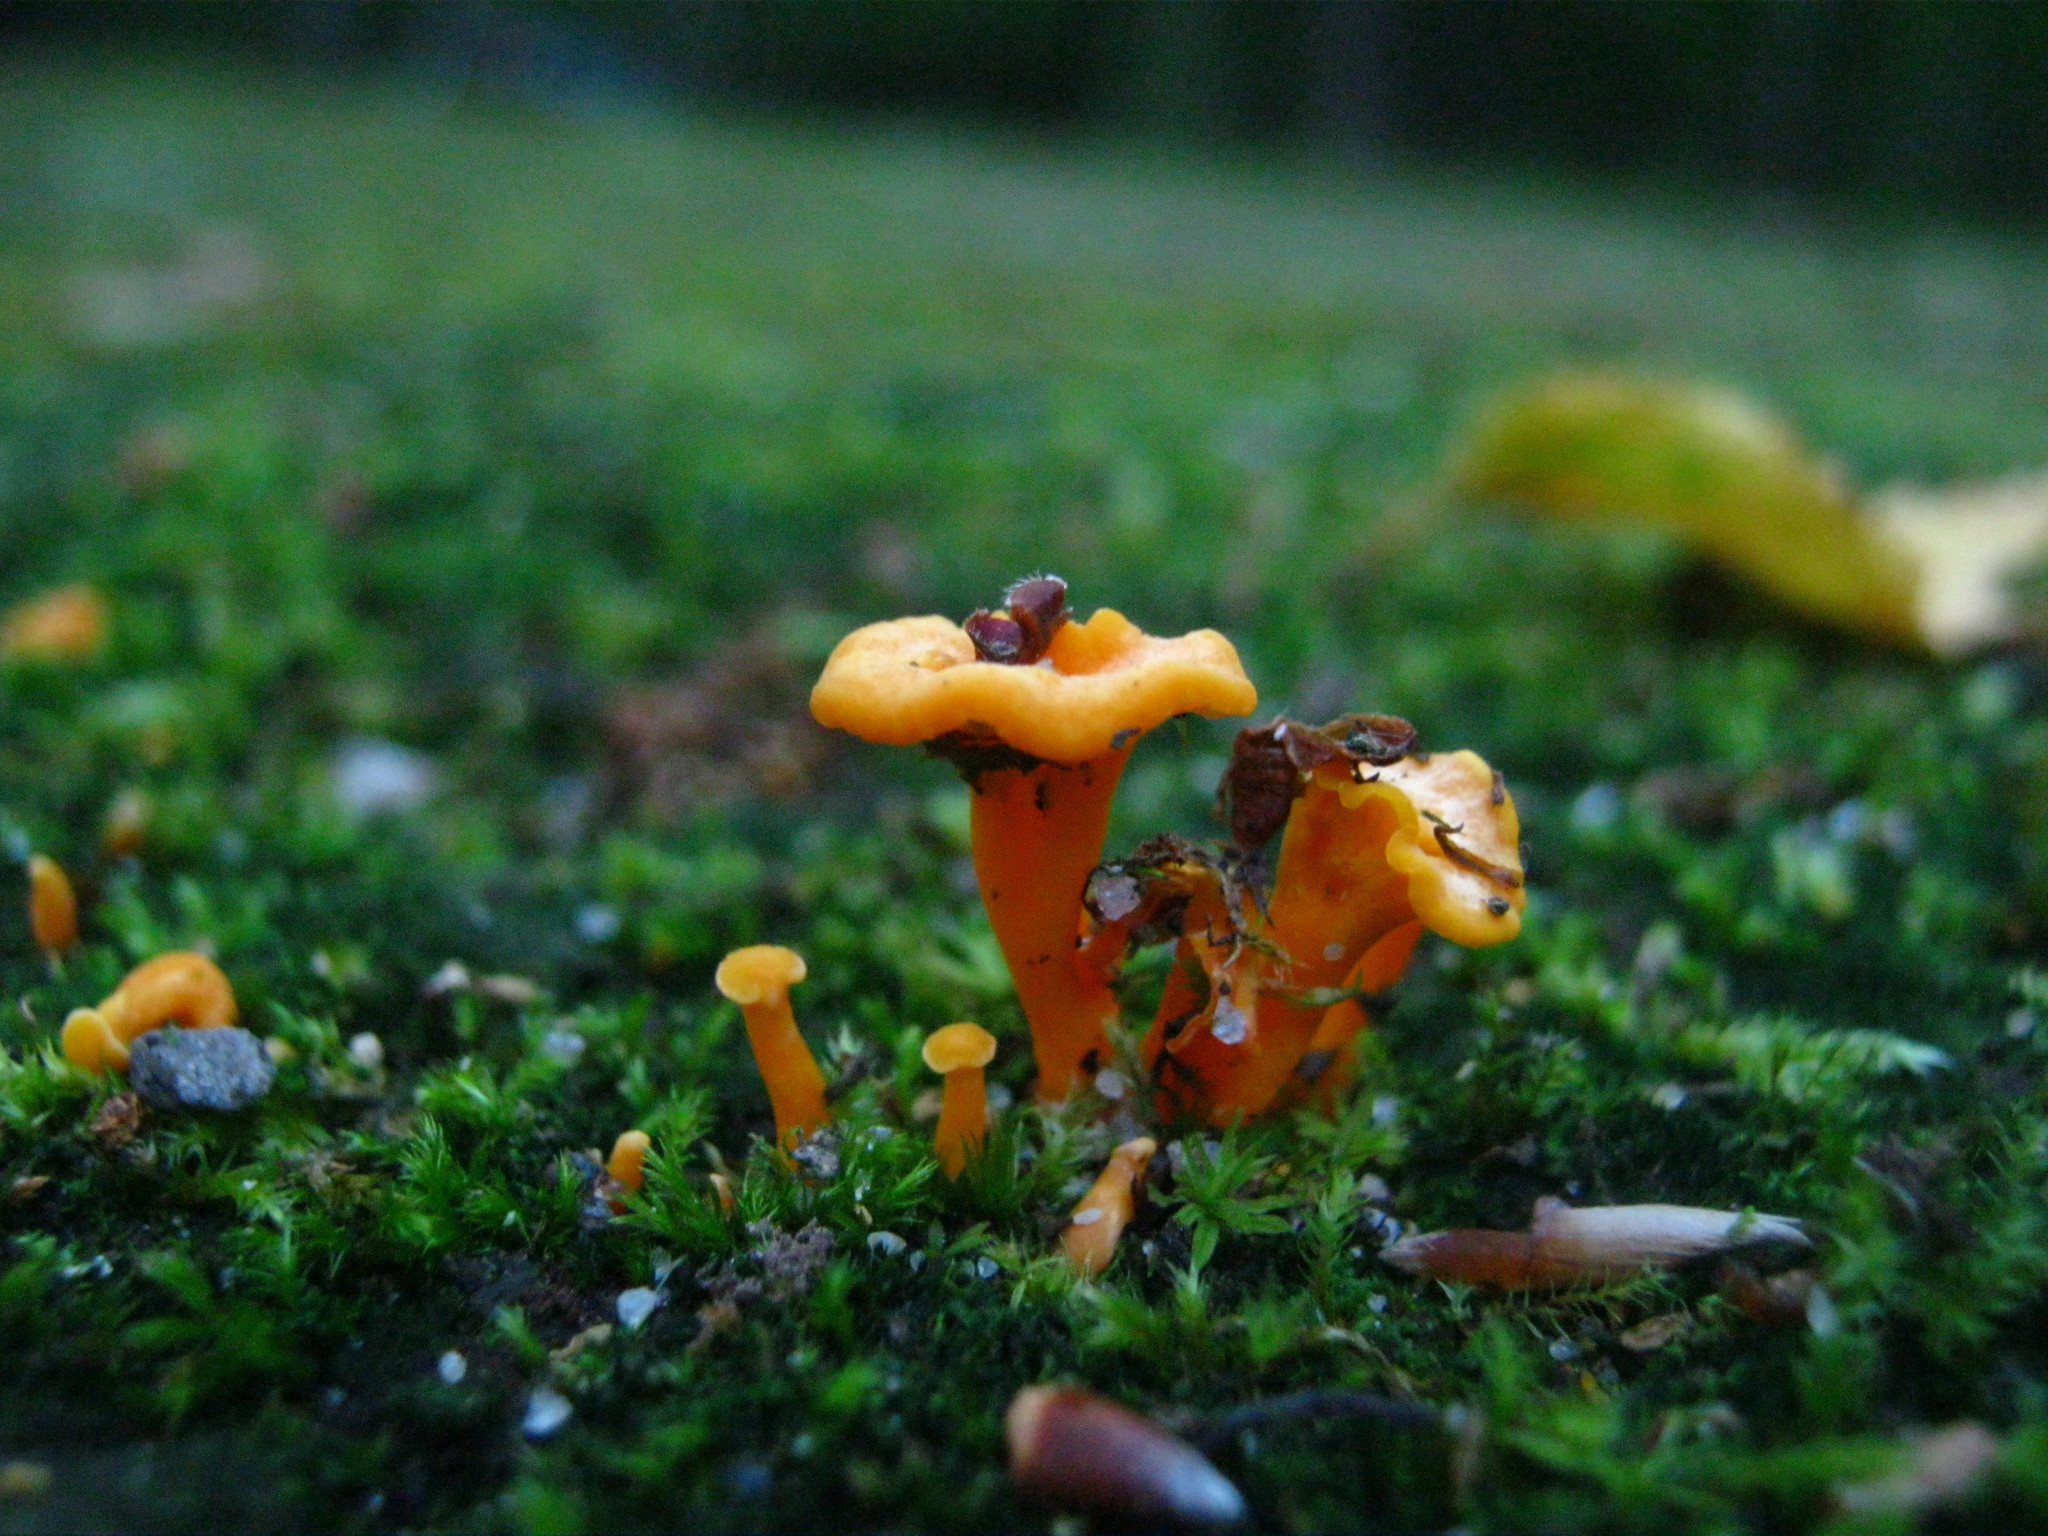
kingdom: Fungi
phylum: Basidiomycota
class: Agaricomycetes
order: Cantharellales
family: Hydnaceae
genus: Cantharellus
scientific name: Cantharellus minor
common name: Small chanterelle
